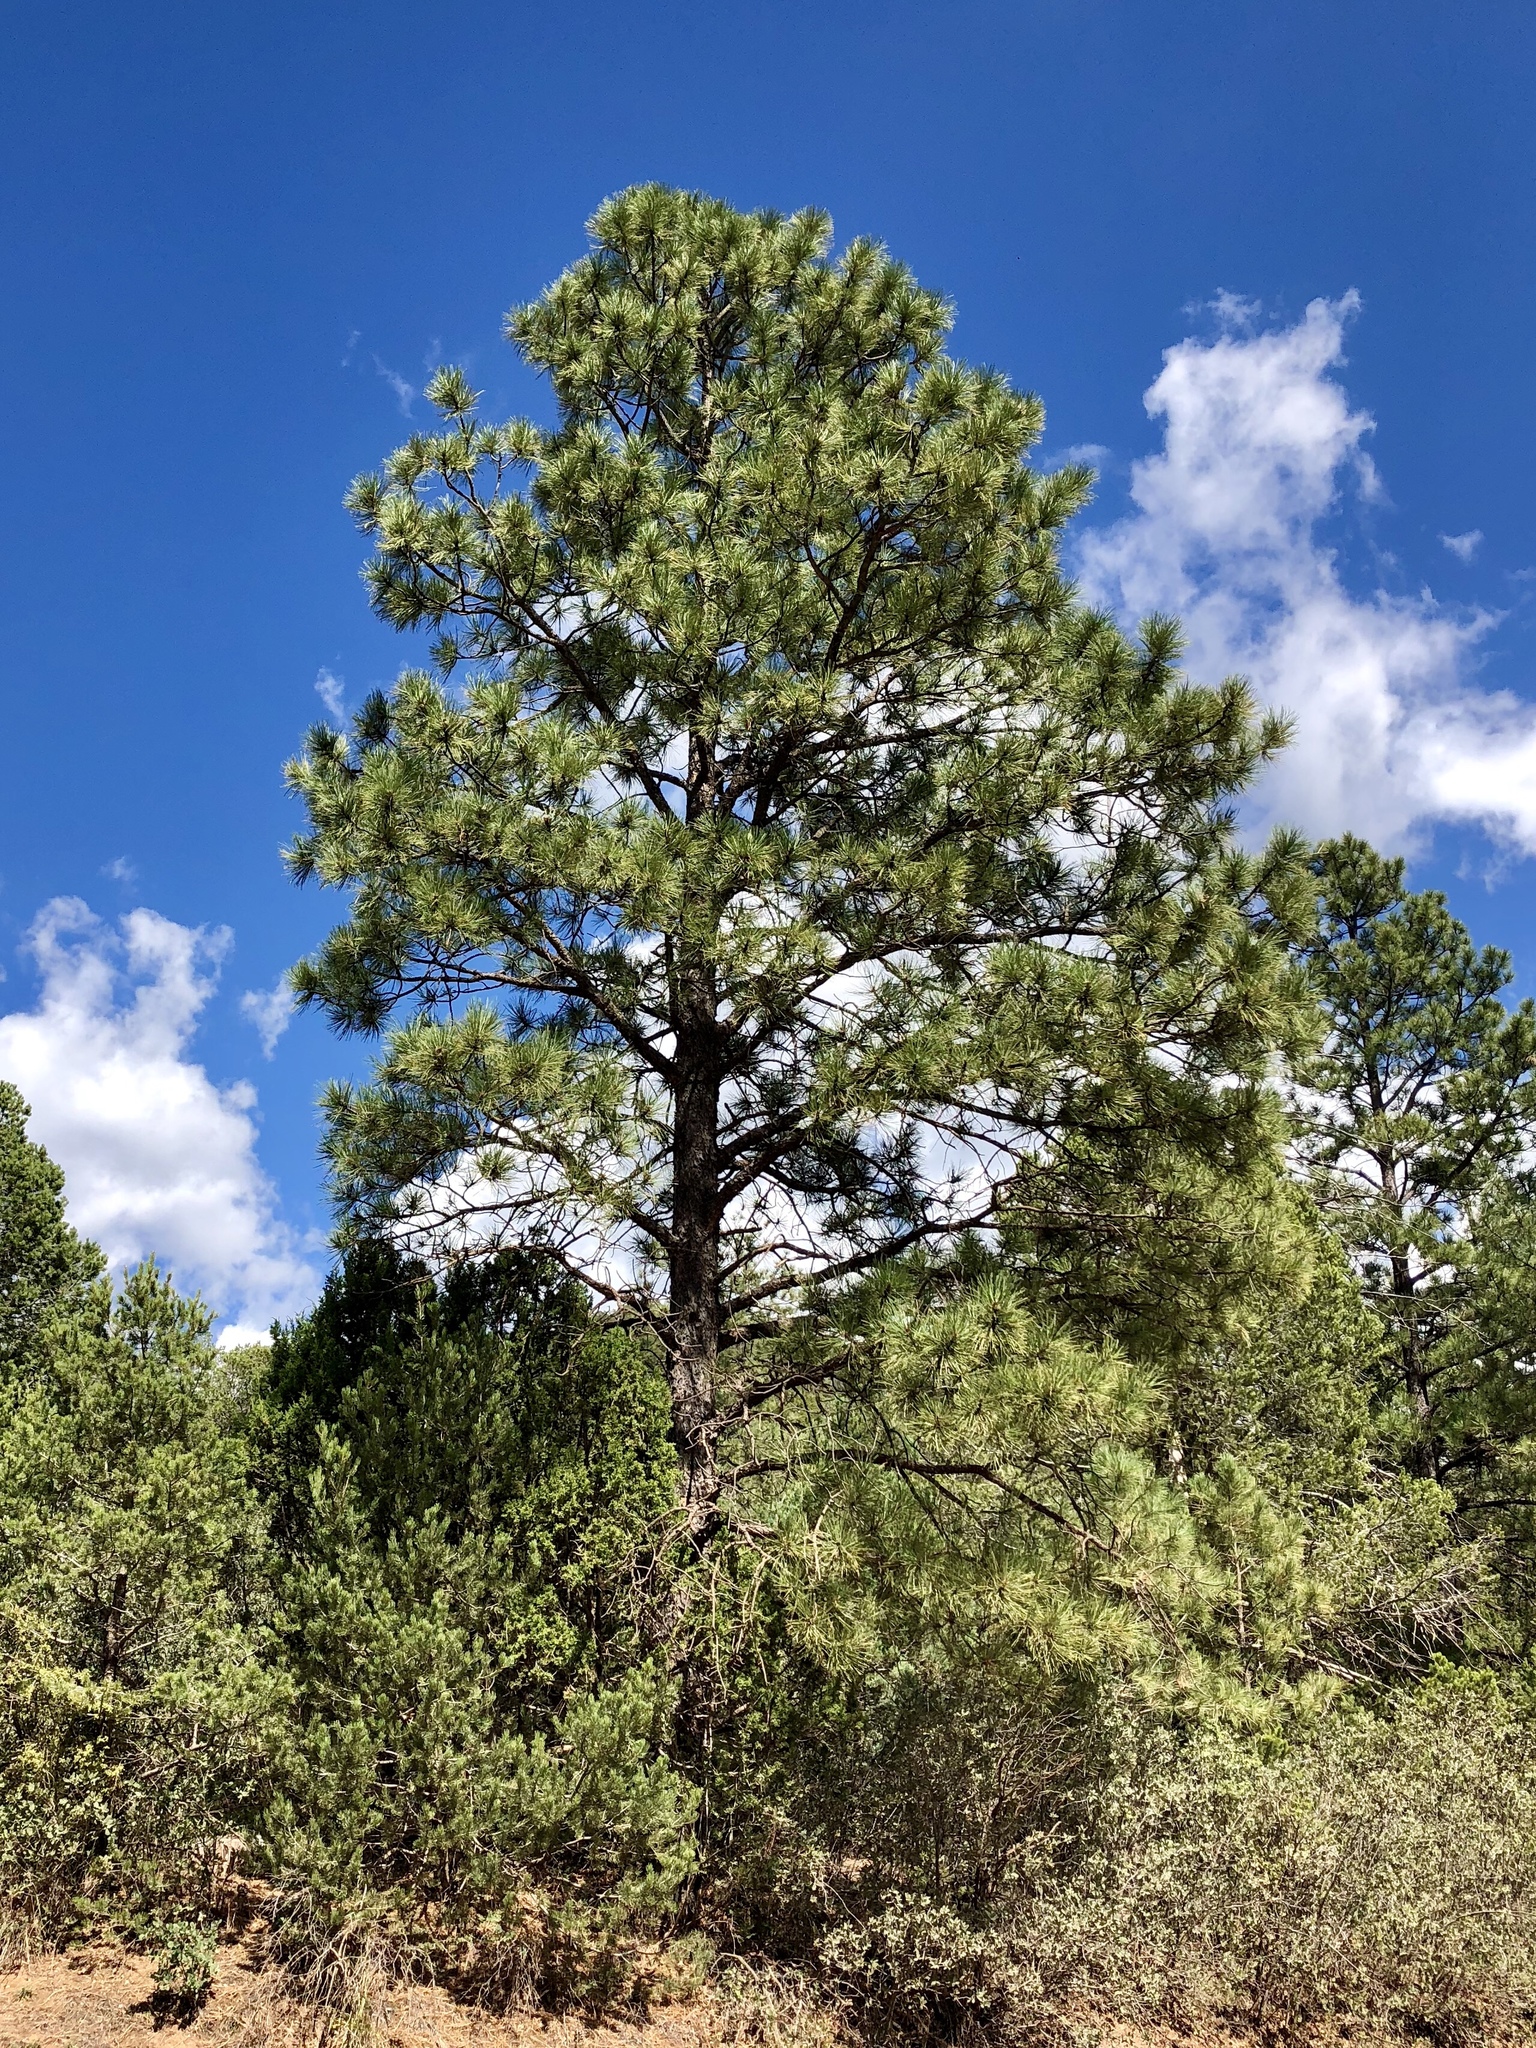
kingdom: Plantae
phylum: Tracheophyta
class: Pinopsida
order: Pinales
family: Pinaceae
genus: Pinus
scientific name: Pinus ponderosa
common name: Western yellow-pine
